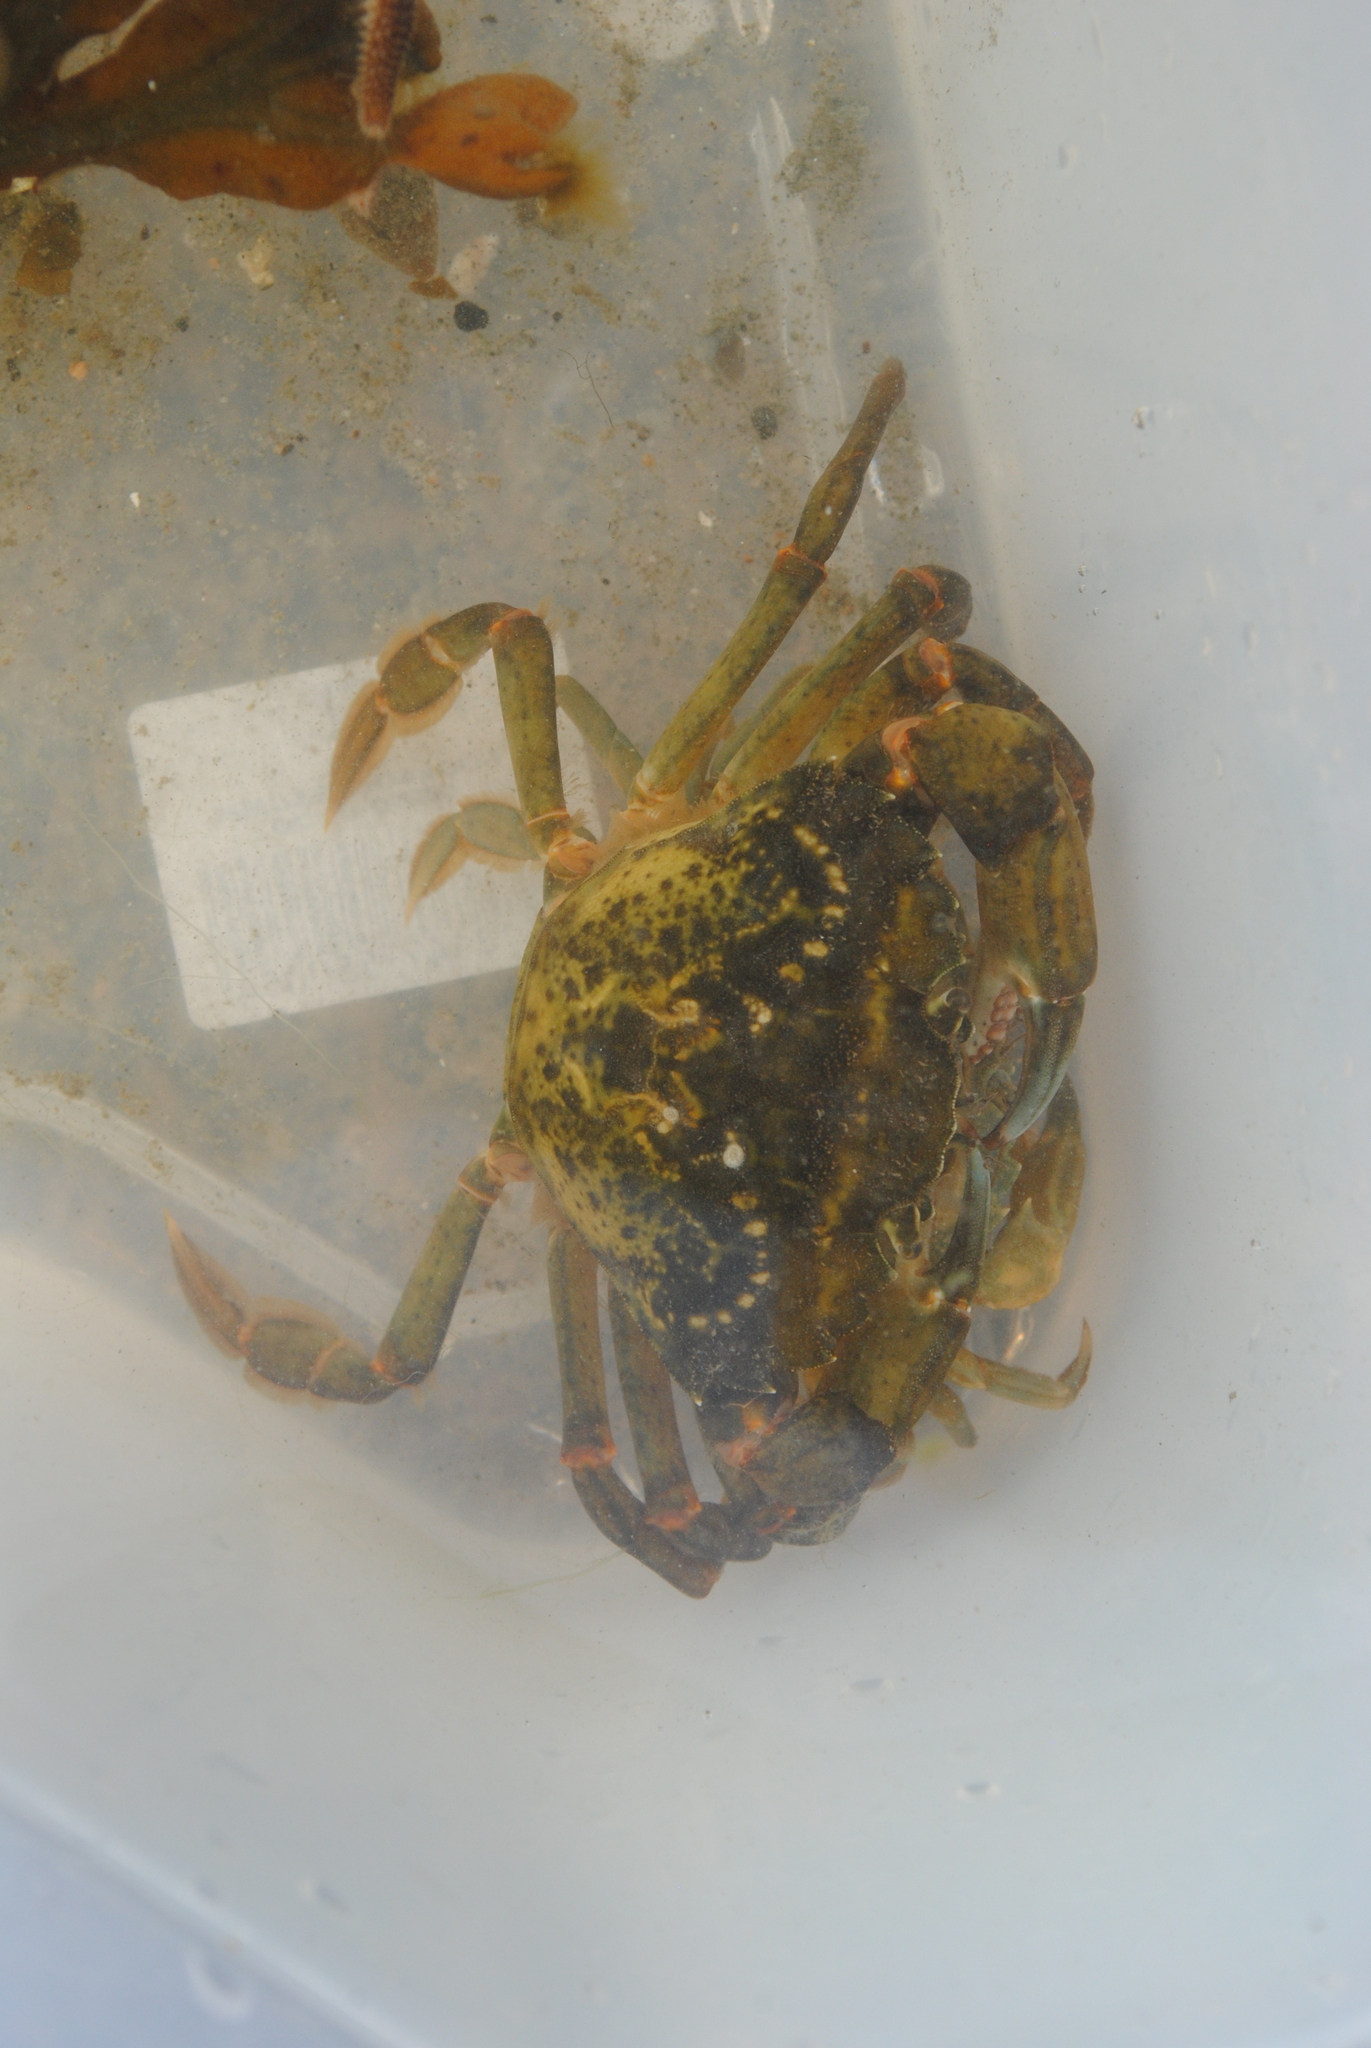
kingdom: Animalia
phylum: Arthropoda
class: Malacostraca
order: Decapoda
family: Carcinidae
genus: Carcinus
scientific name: Carcinus maenas
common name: European green crab
